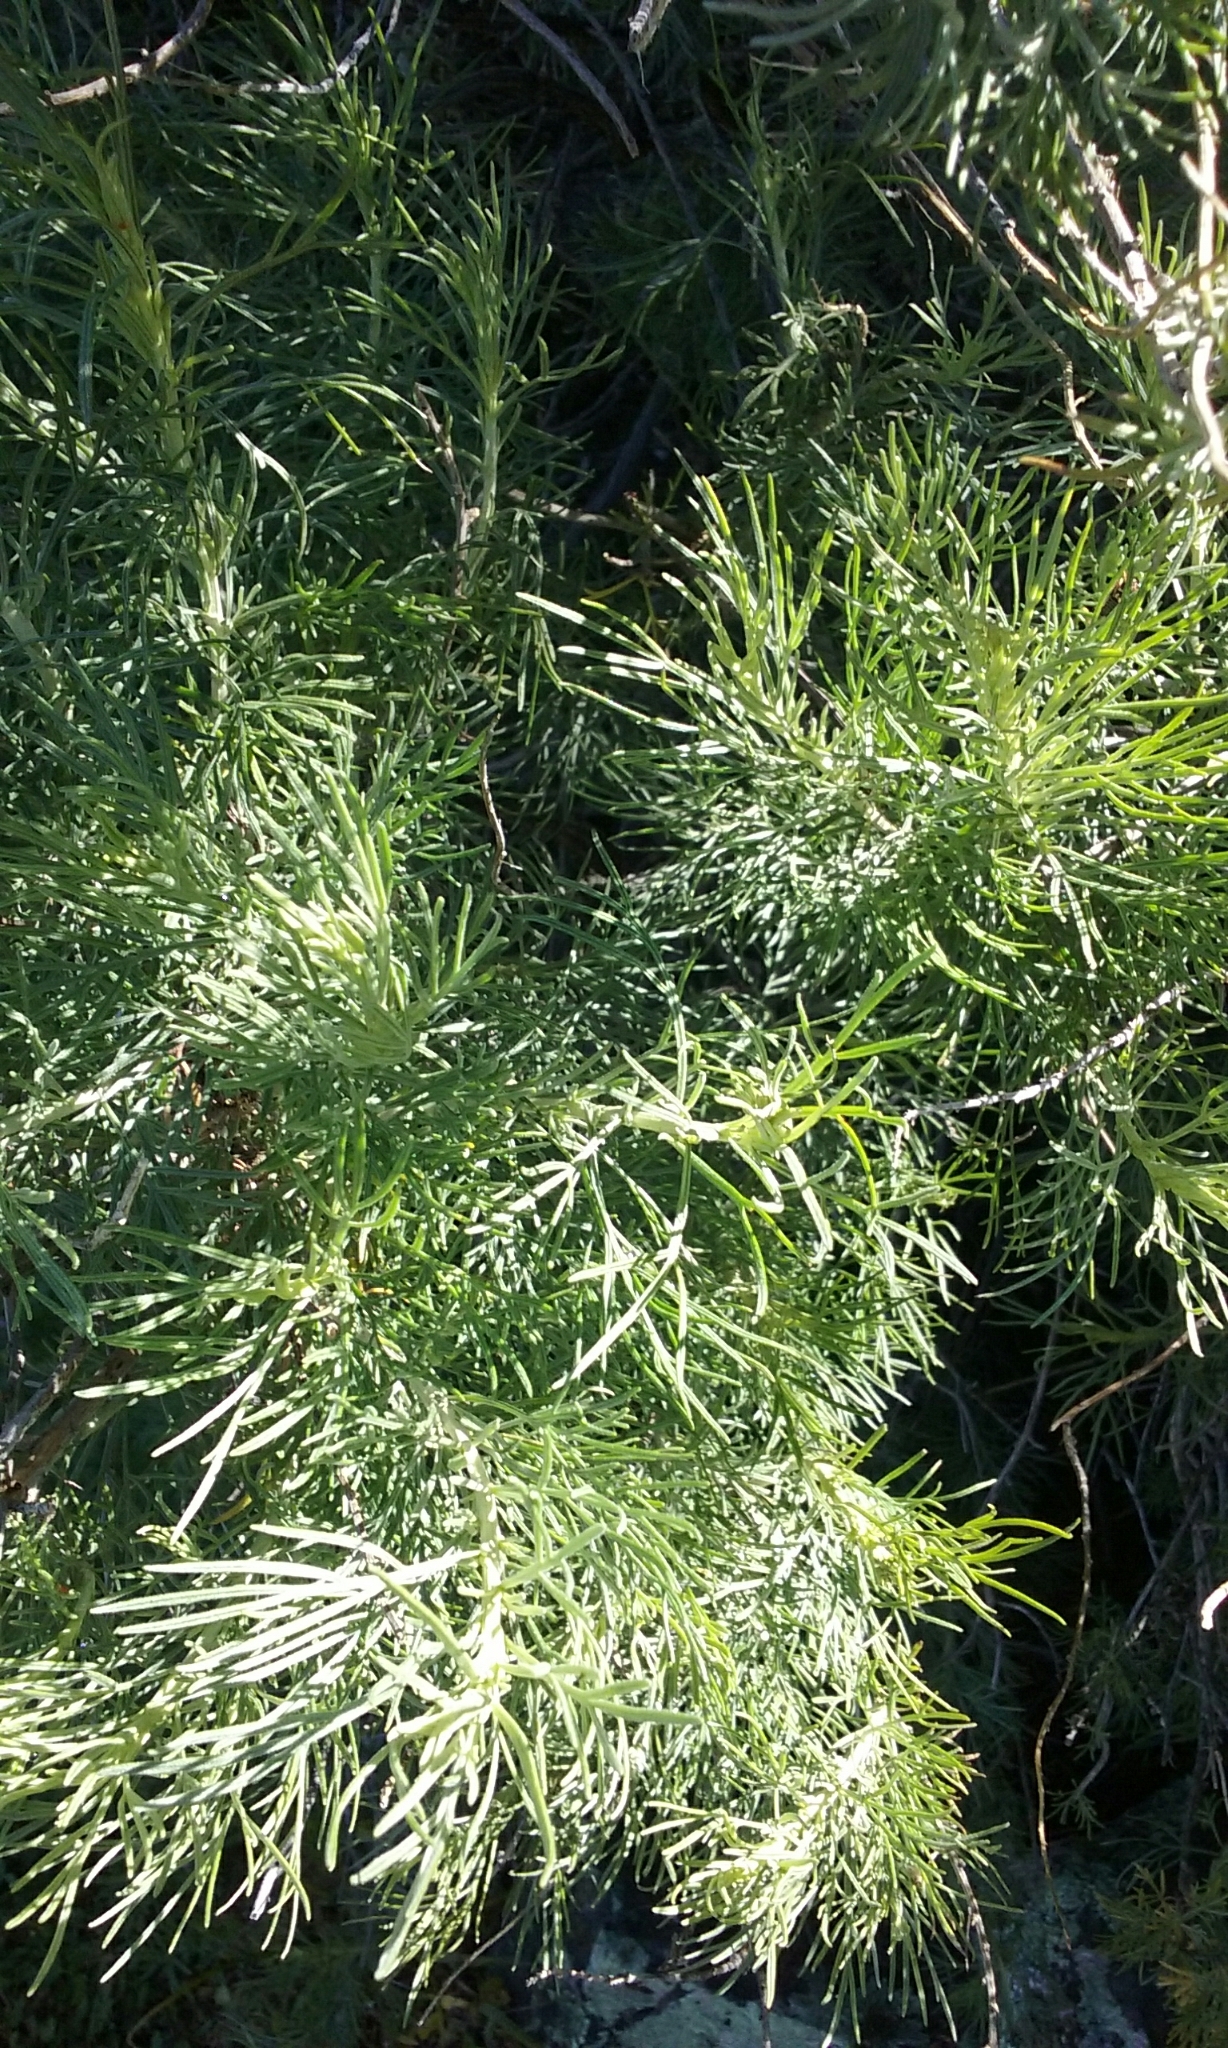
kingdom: Plantae
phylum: Tracheophyta
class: Magnoliopsida
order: Asterales
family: Asteraceae
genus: Artemisia
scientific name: Artemisia californica
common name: California sagebrush
